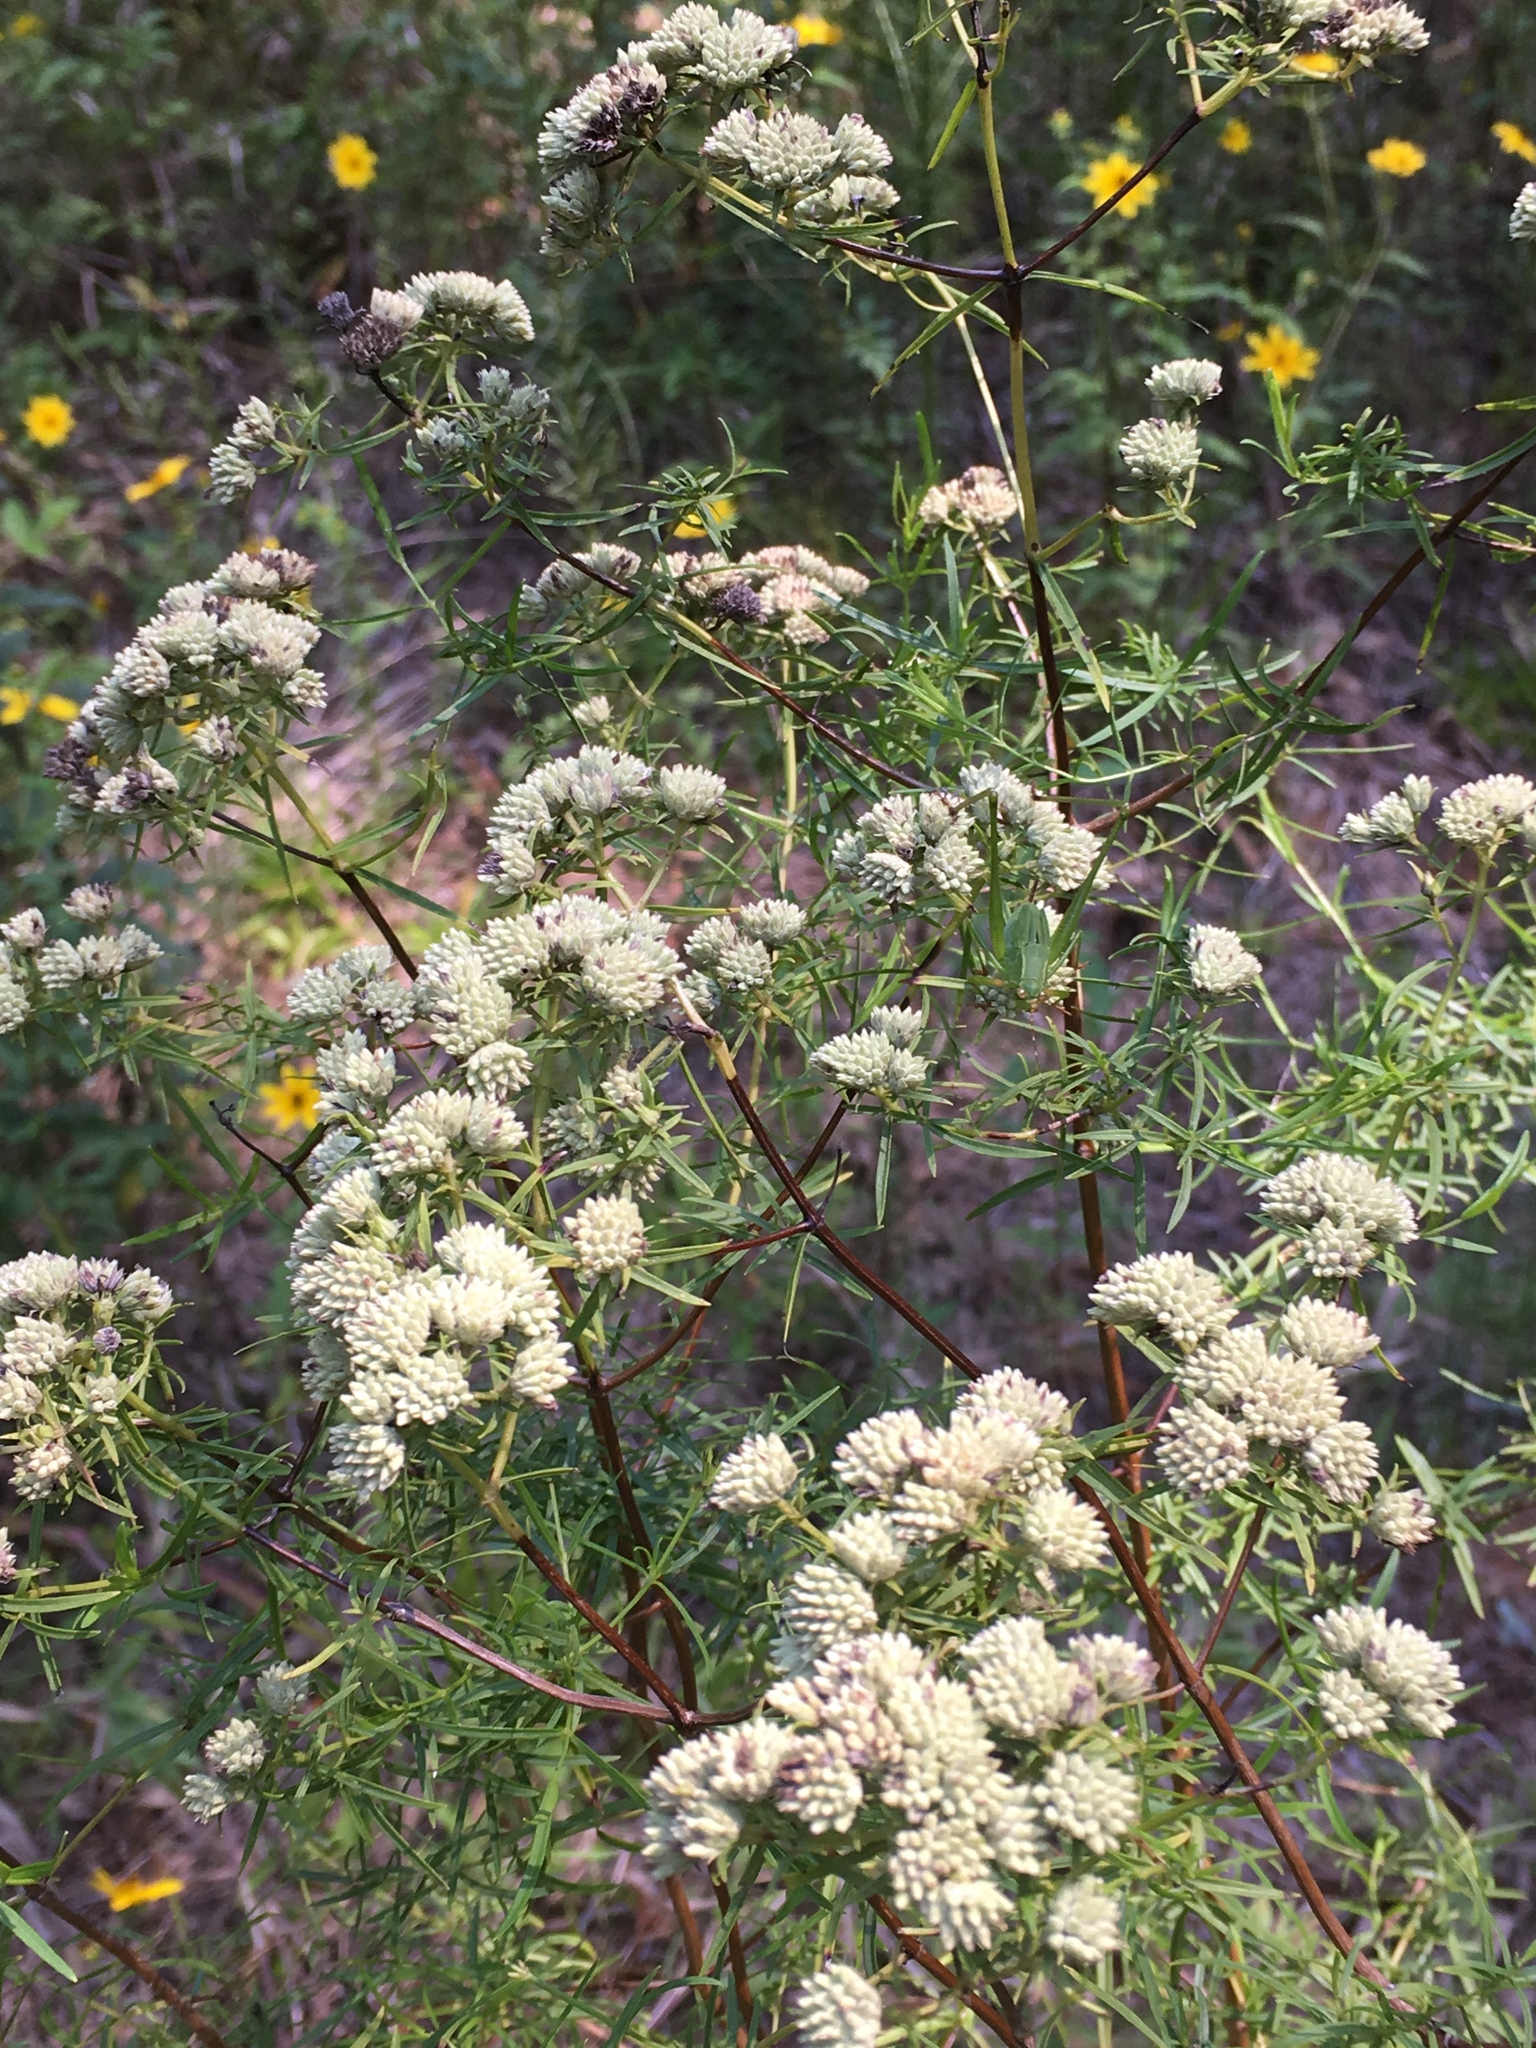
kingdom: Plantae
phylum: Tracheophyta
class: Magnoliopsida
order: Lamiales
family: Lamiaceae
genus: Pycnanthemum
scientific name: Pycnanthemum tenuifolium
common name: Narrow-leaf mountain-mint
